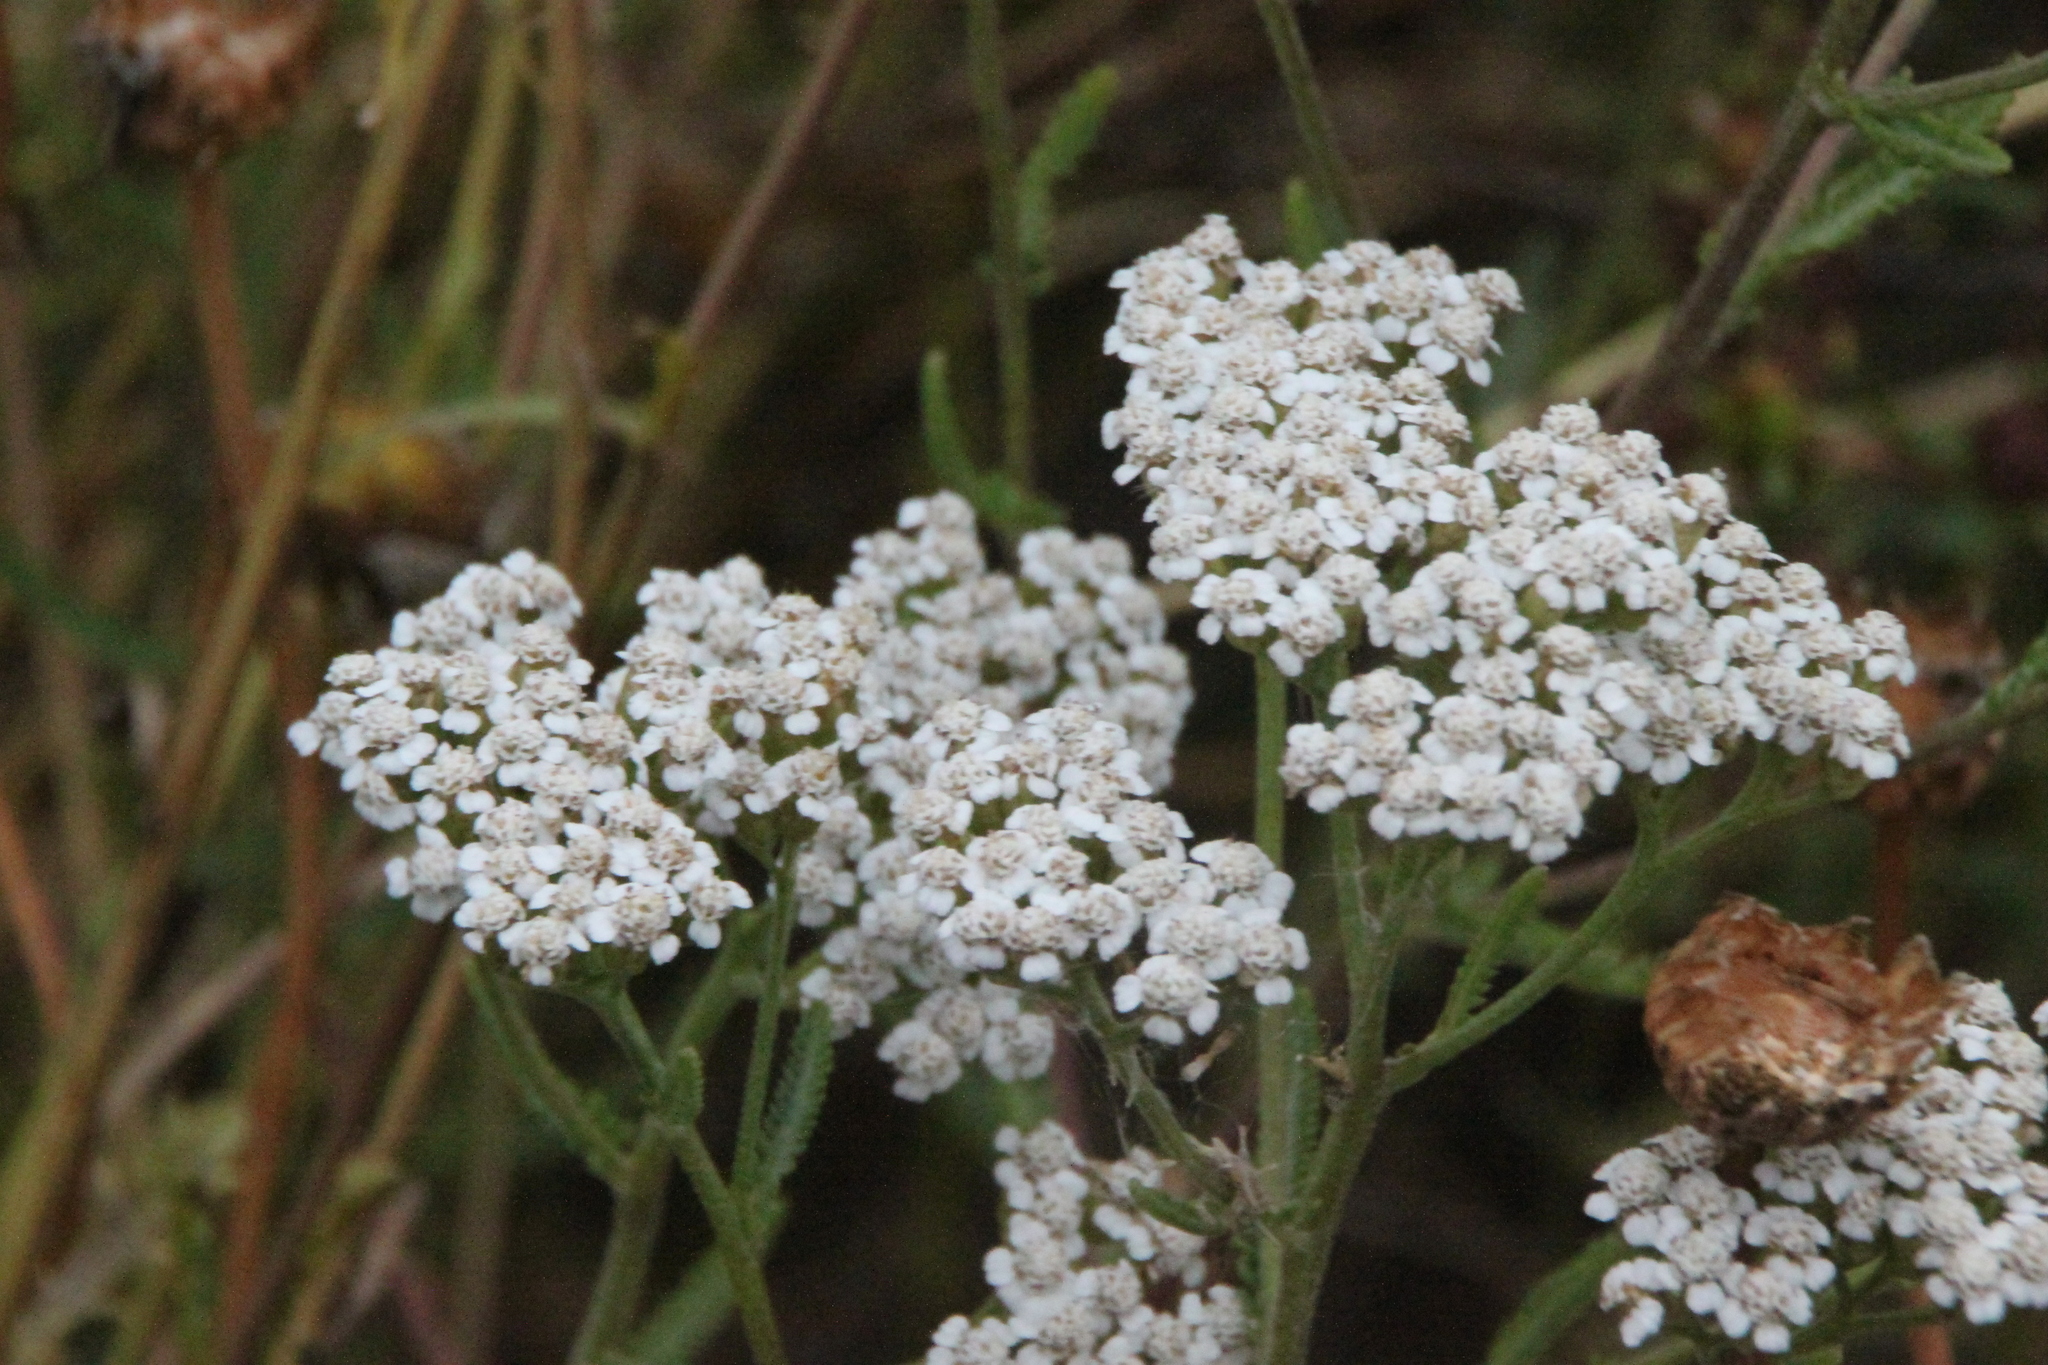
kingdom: Plantae
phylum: Tracheophyta
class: Magnoliopsida
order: Asterales
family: Asteraceae
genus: Achillea
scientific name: Achillea millefolium
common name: Yarrow
